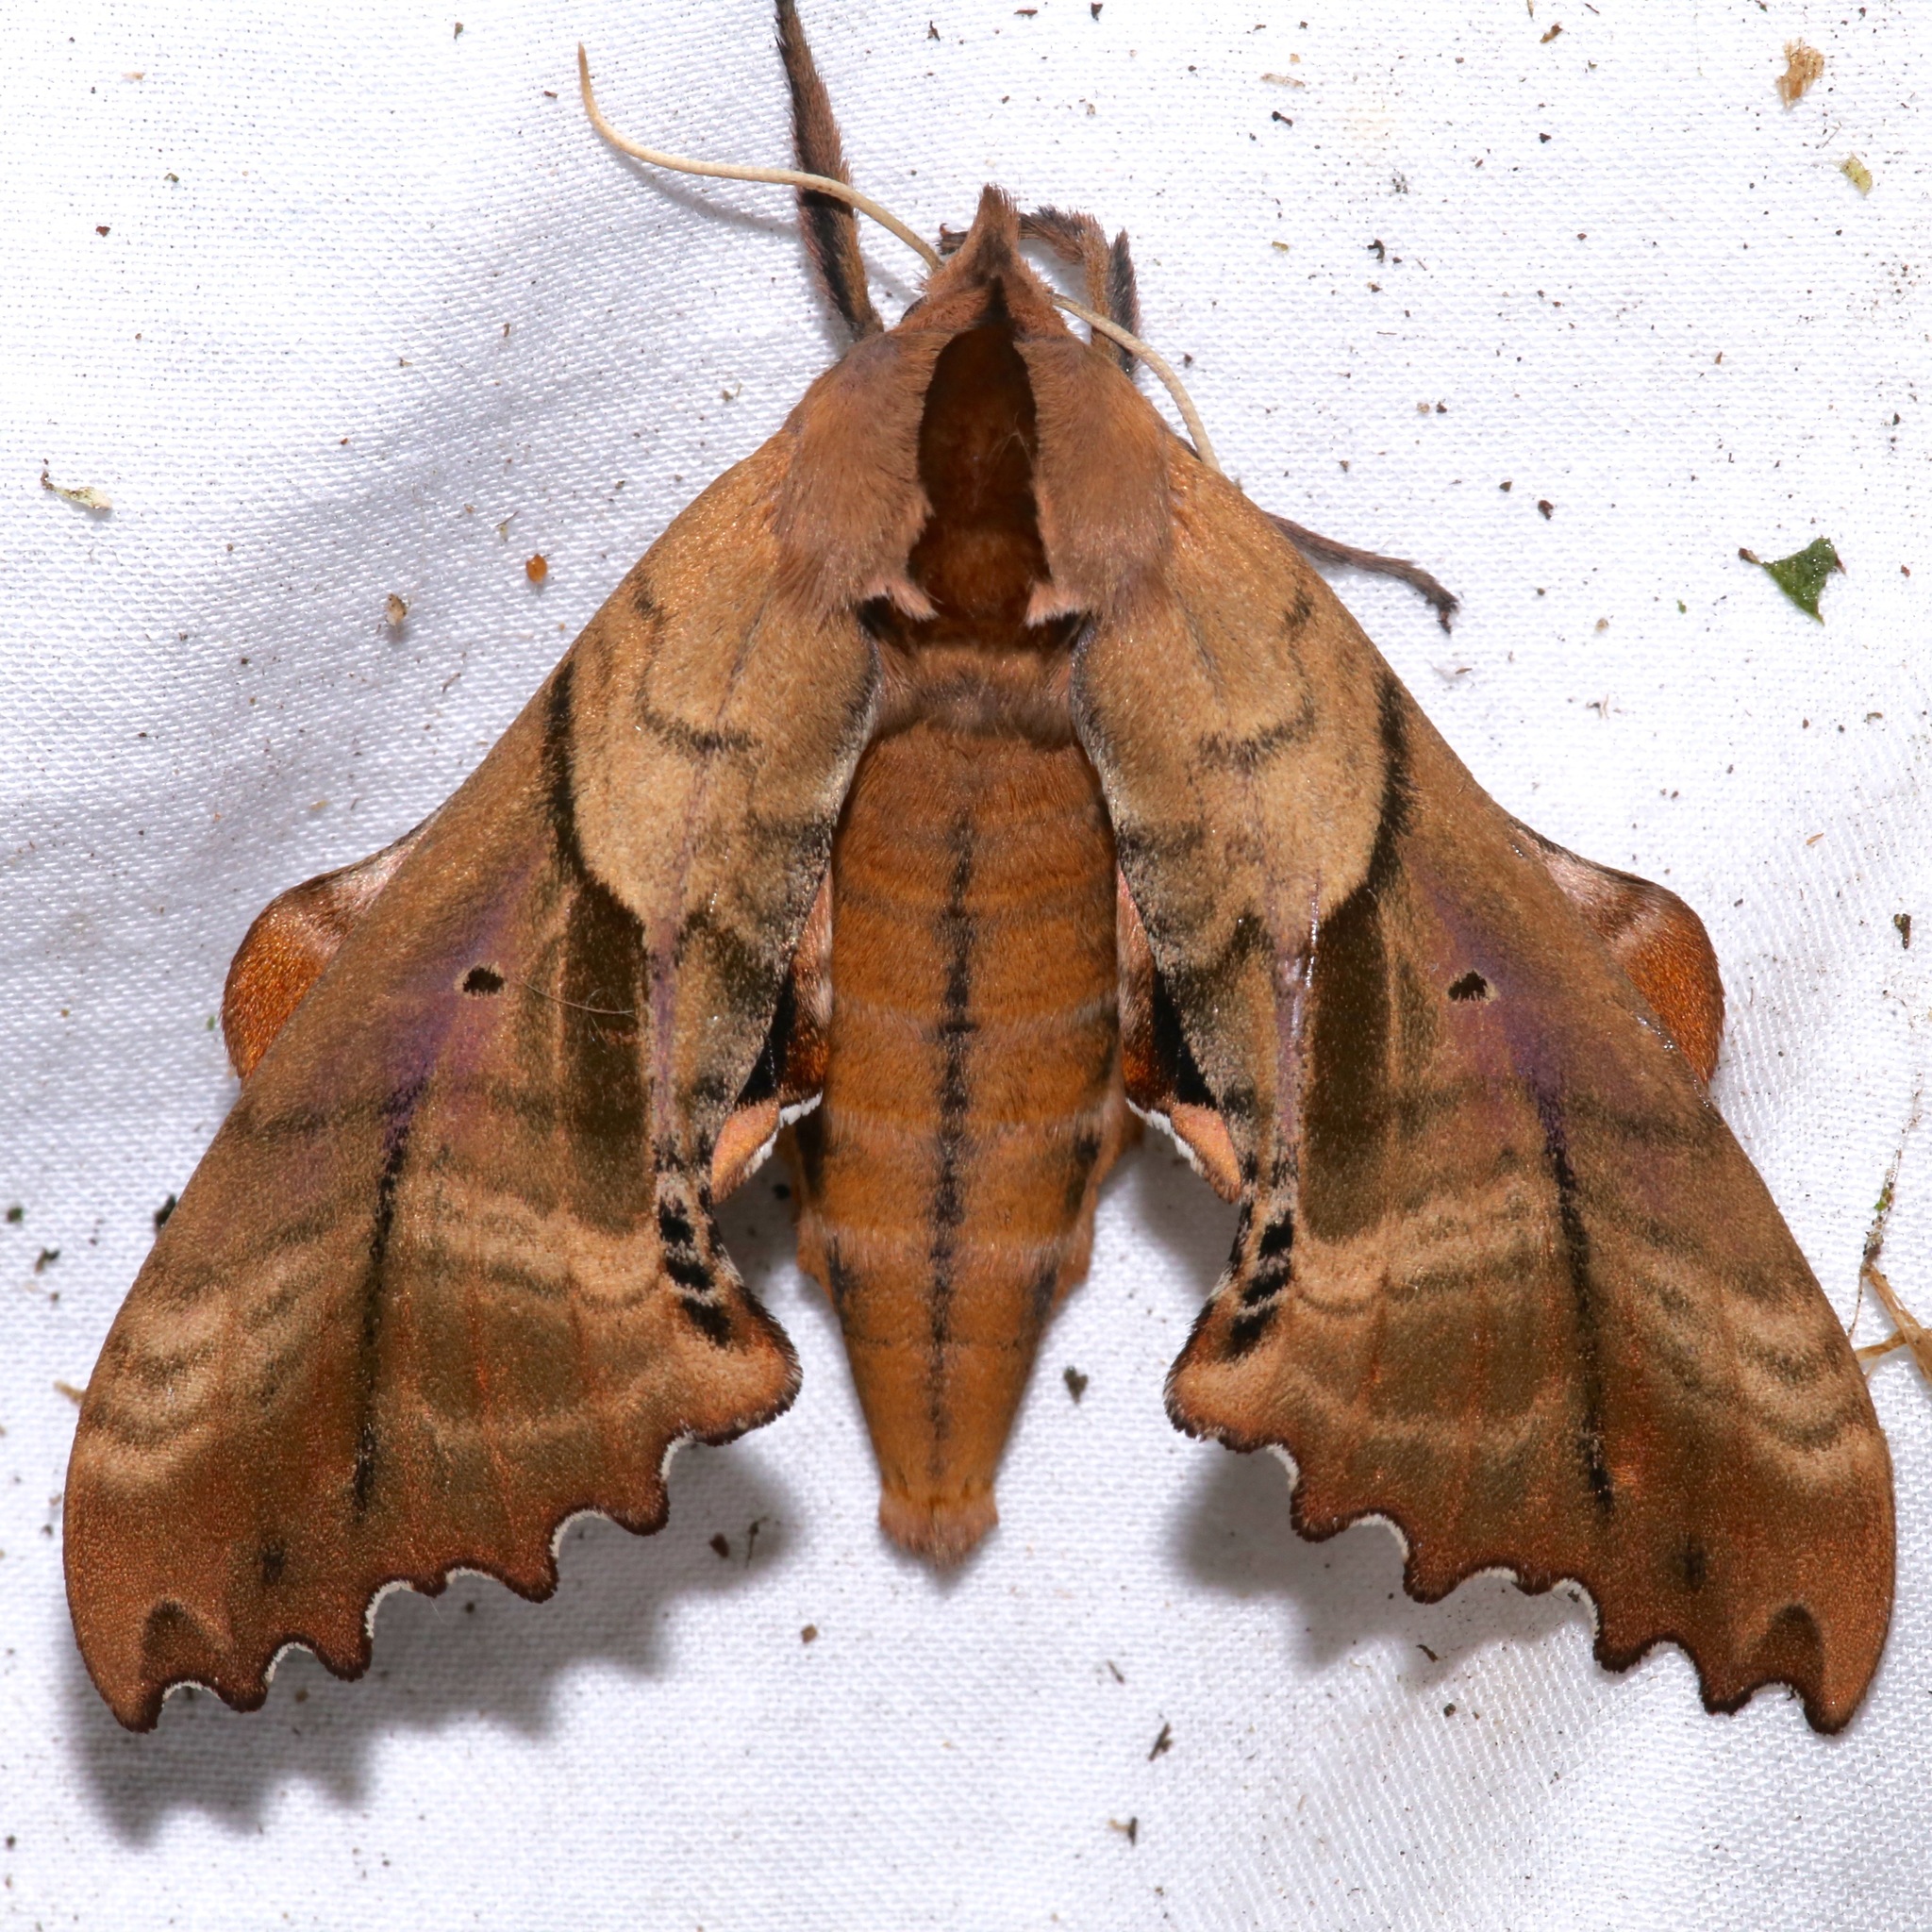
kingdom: Animalia
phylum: Arthropoda
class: Insecta
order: Lepidoptera
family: Sphingidae
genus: Paonias
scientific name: Paonias excaecata
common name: Blind-eyed sphinx
